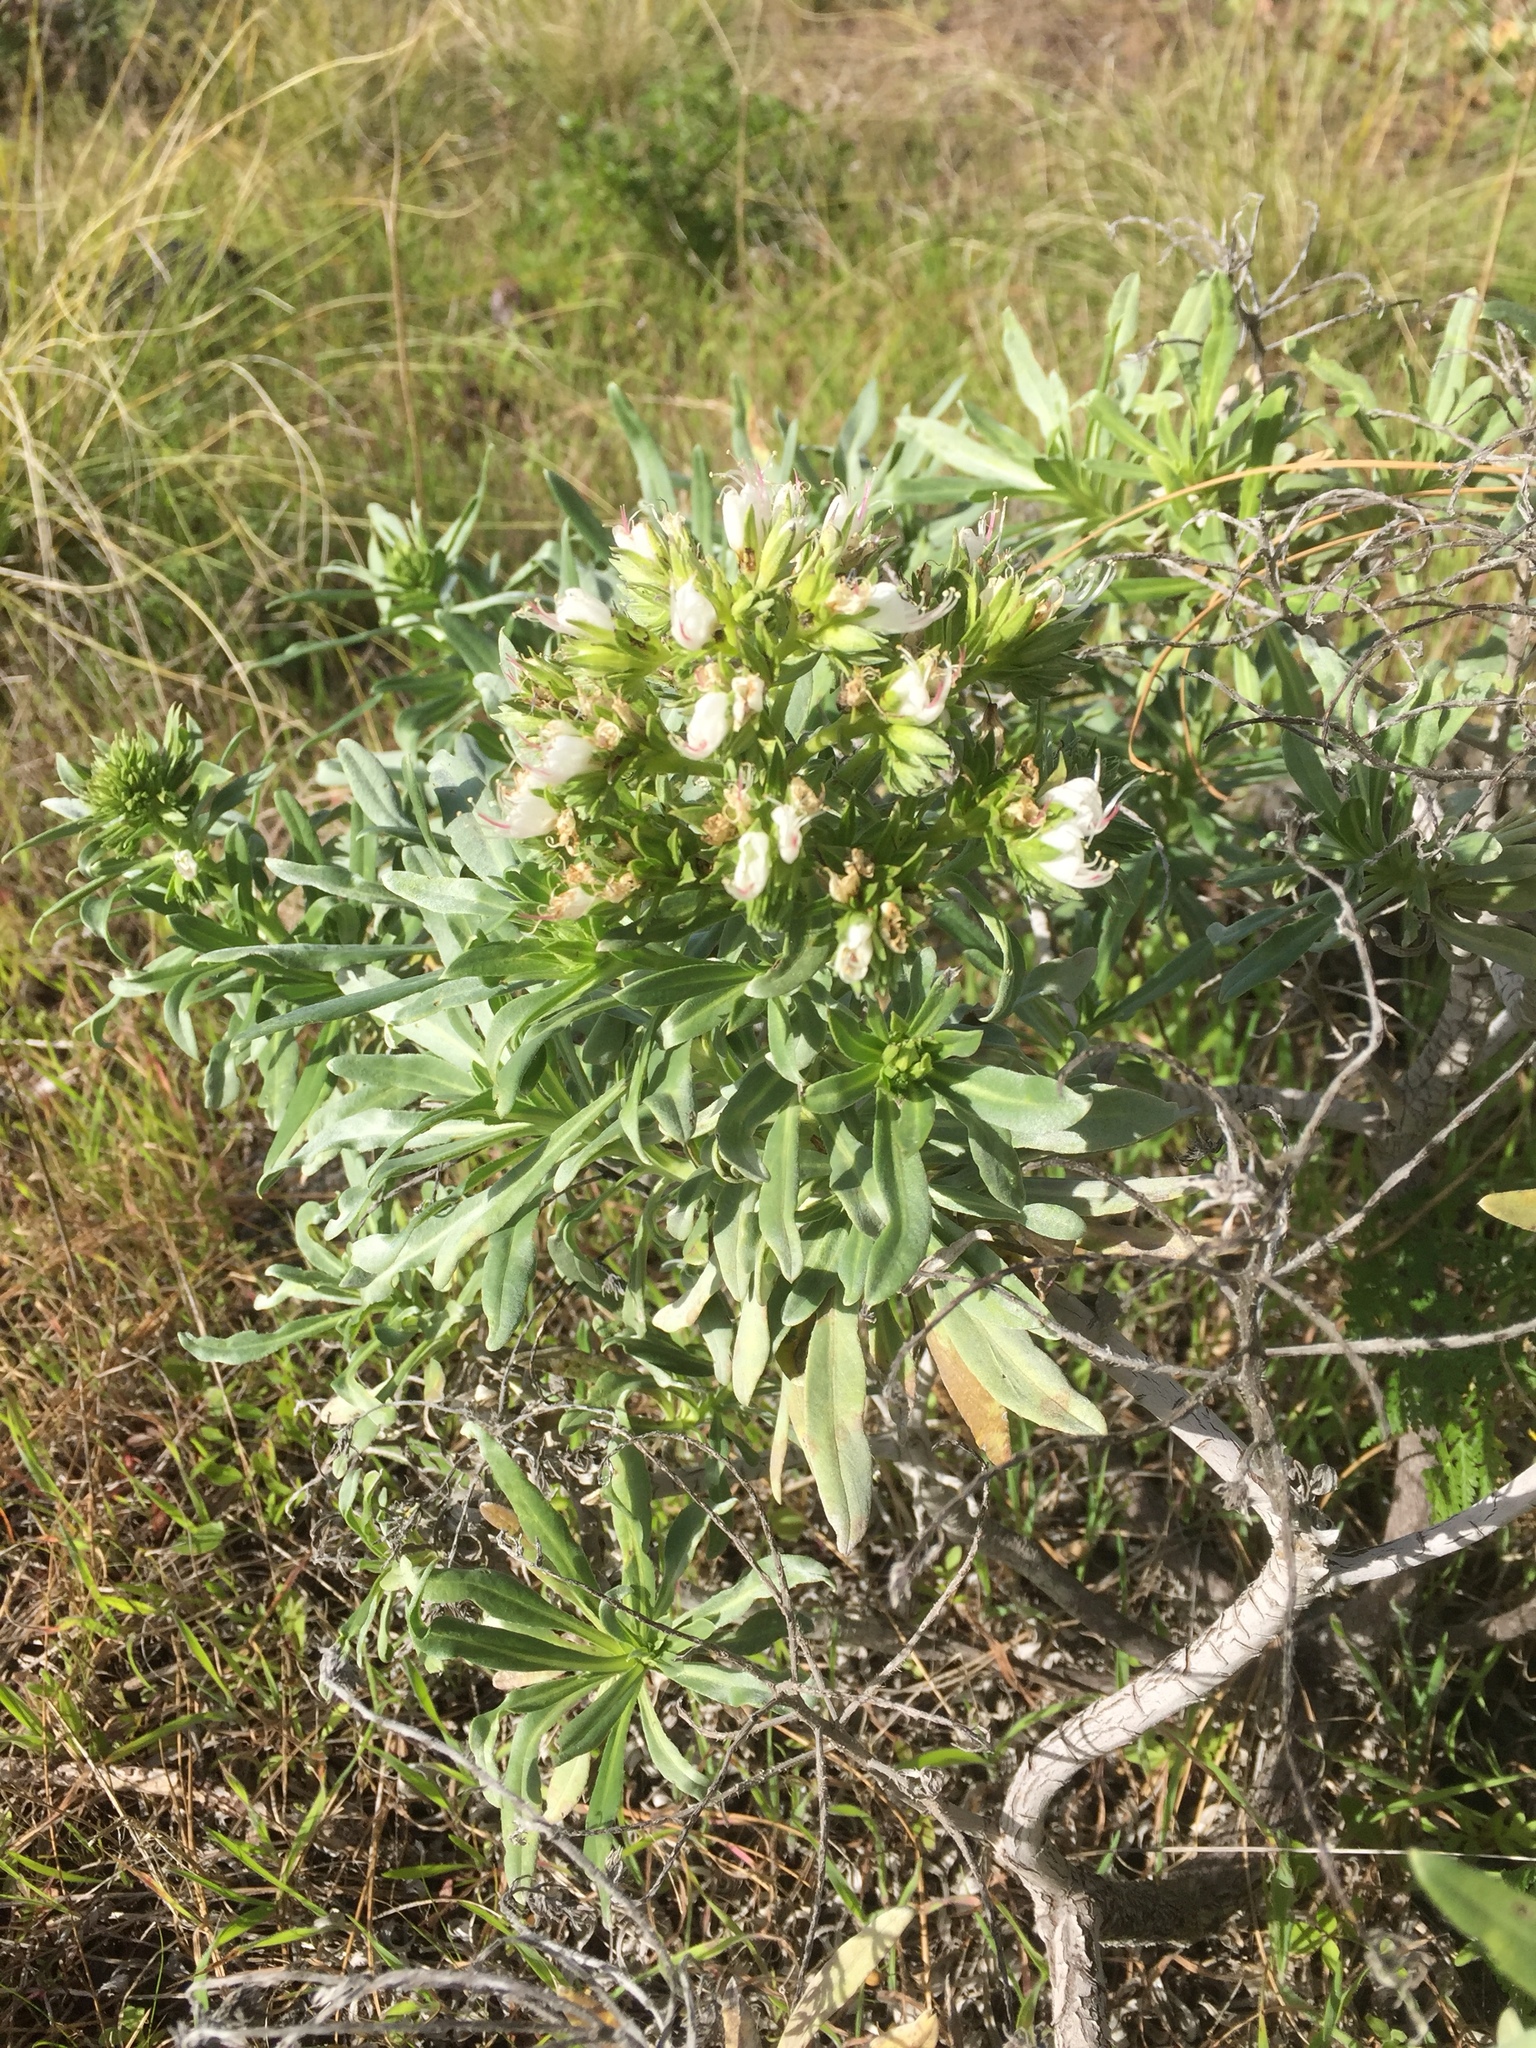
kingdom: Plantae
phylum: Tracheophyta
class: Magnoliopsida
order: Boraginales
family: Boraginaceae
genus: Echium
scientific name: Echium brevirame
